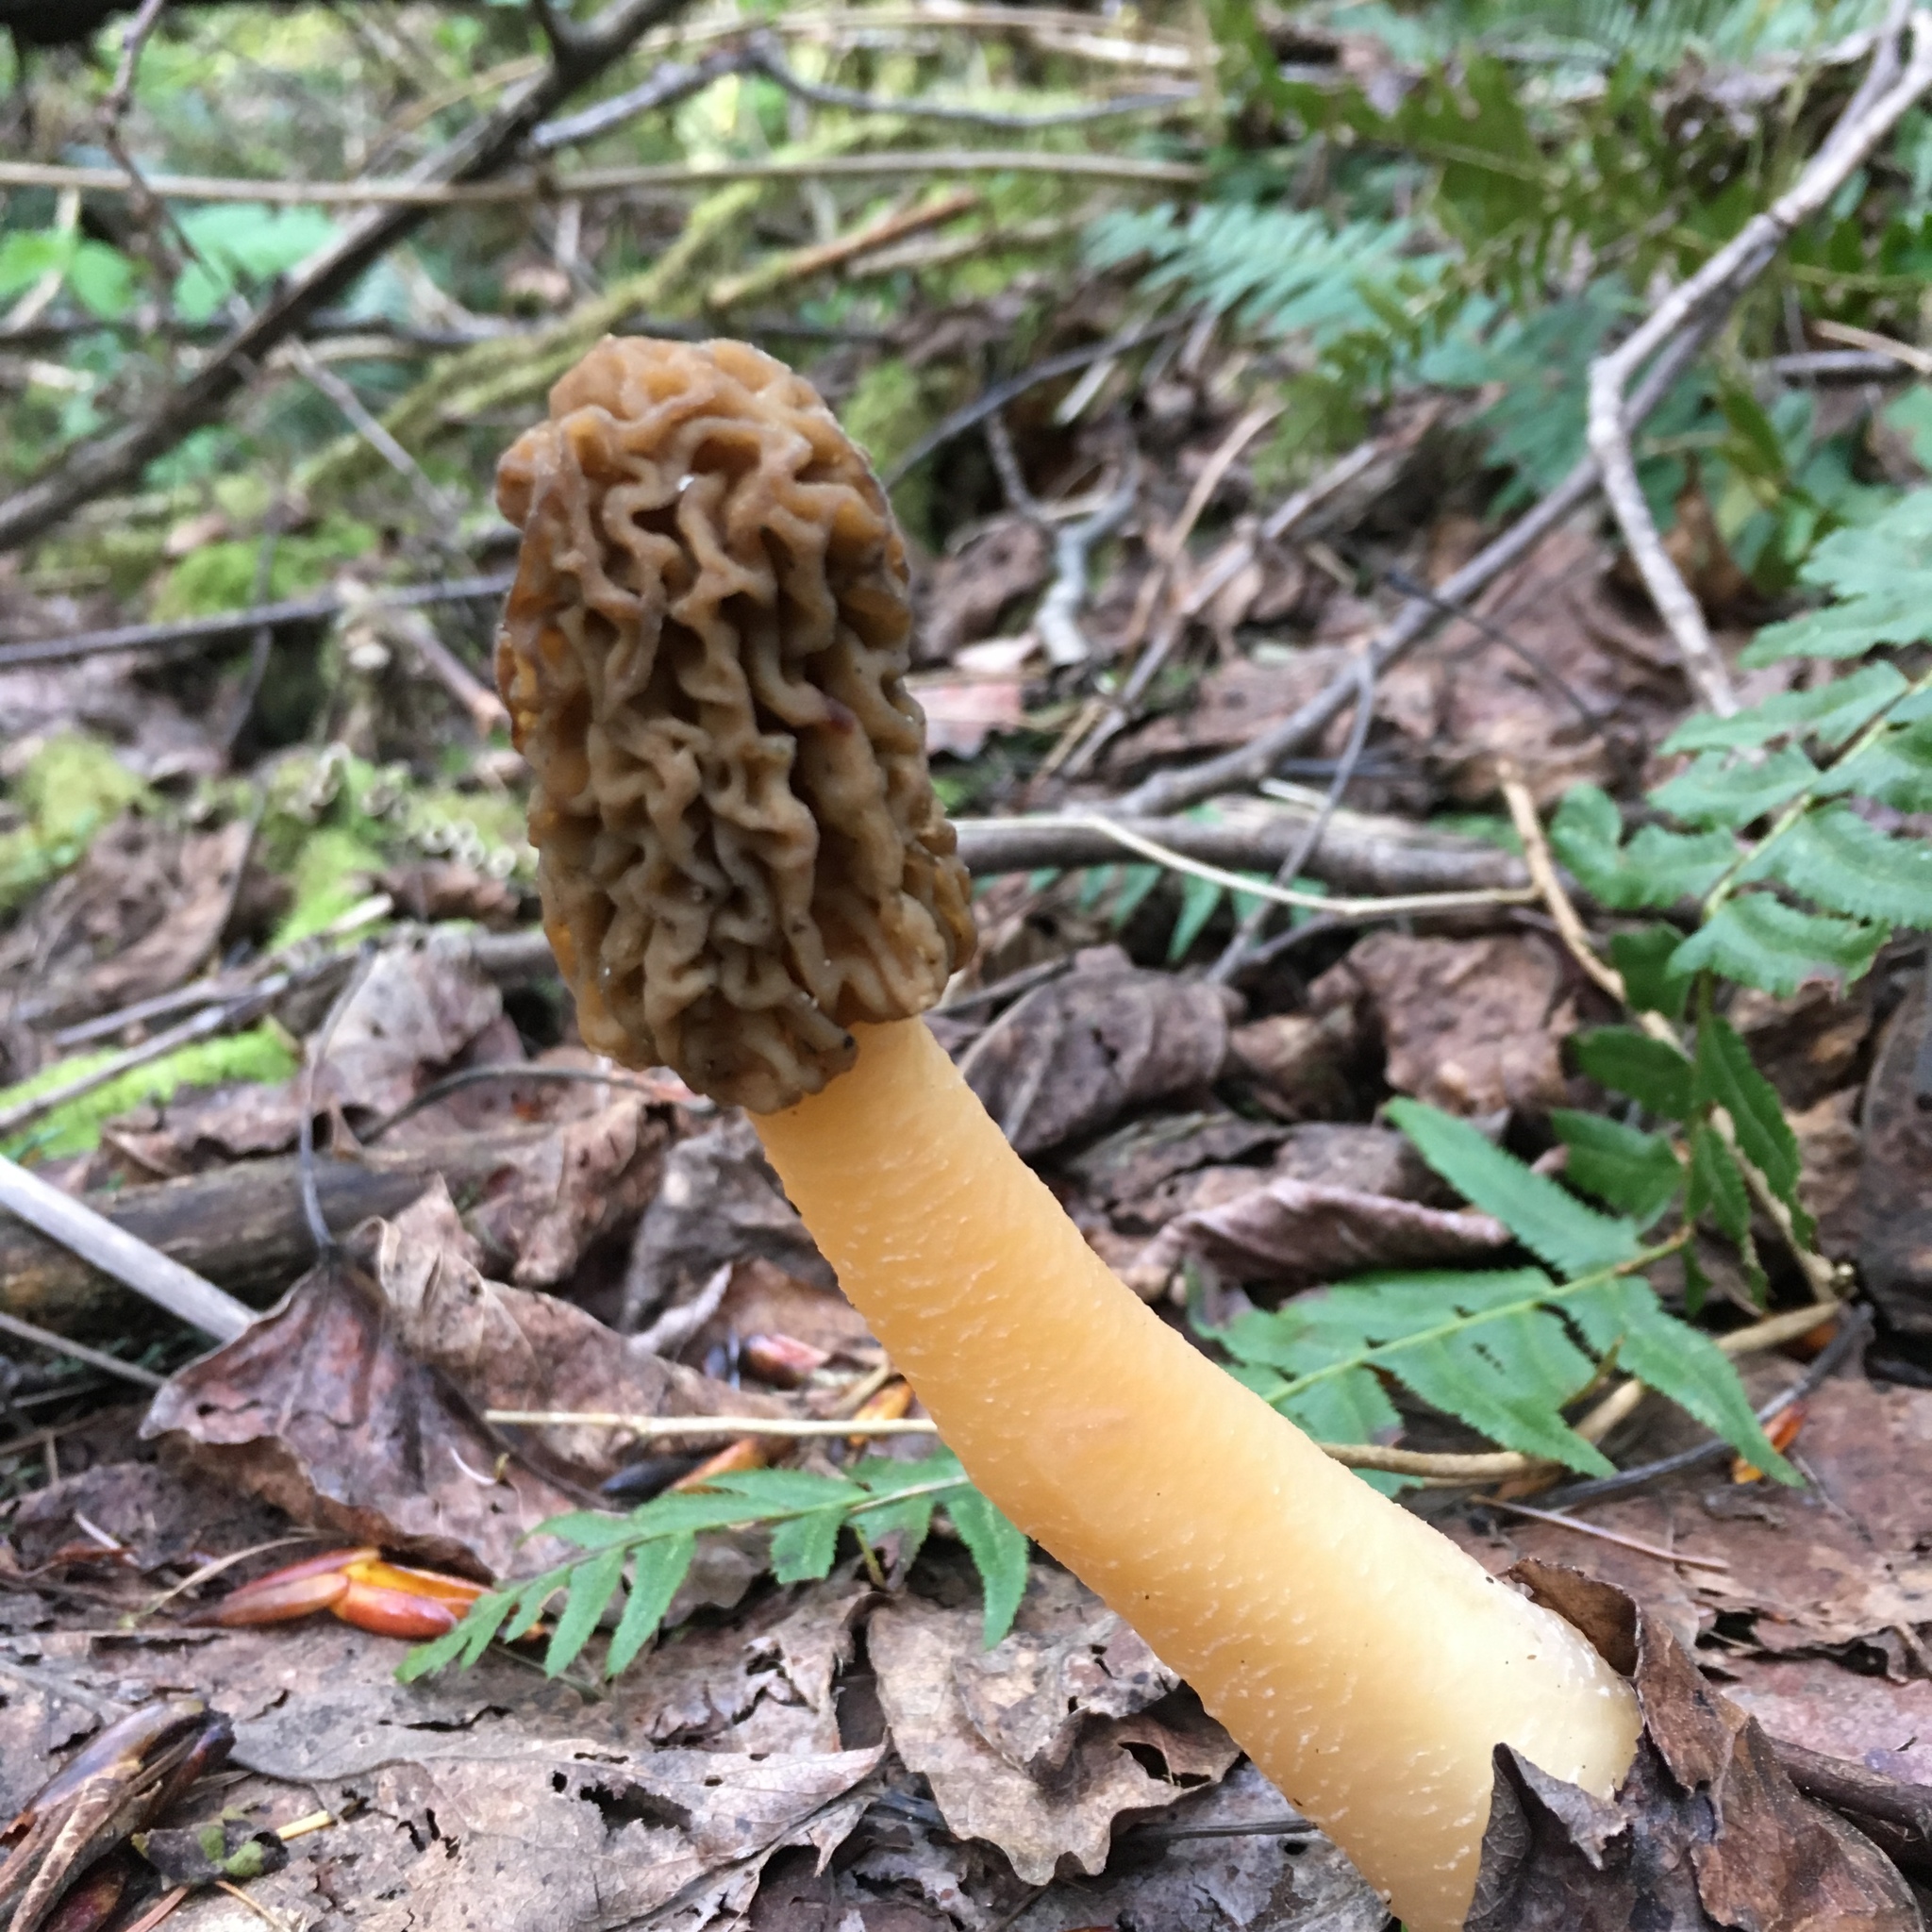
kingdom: Fungi
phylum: Ascomycota
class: Pezizomycetes
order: Pezizales
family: Morchellaceae
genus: Verpa
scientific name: Verpa bohemica
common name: Wrinkled thimble morel
